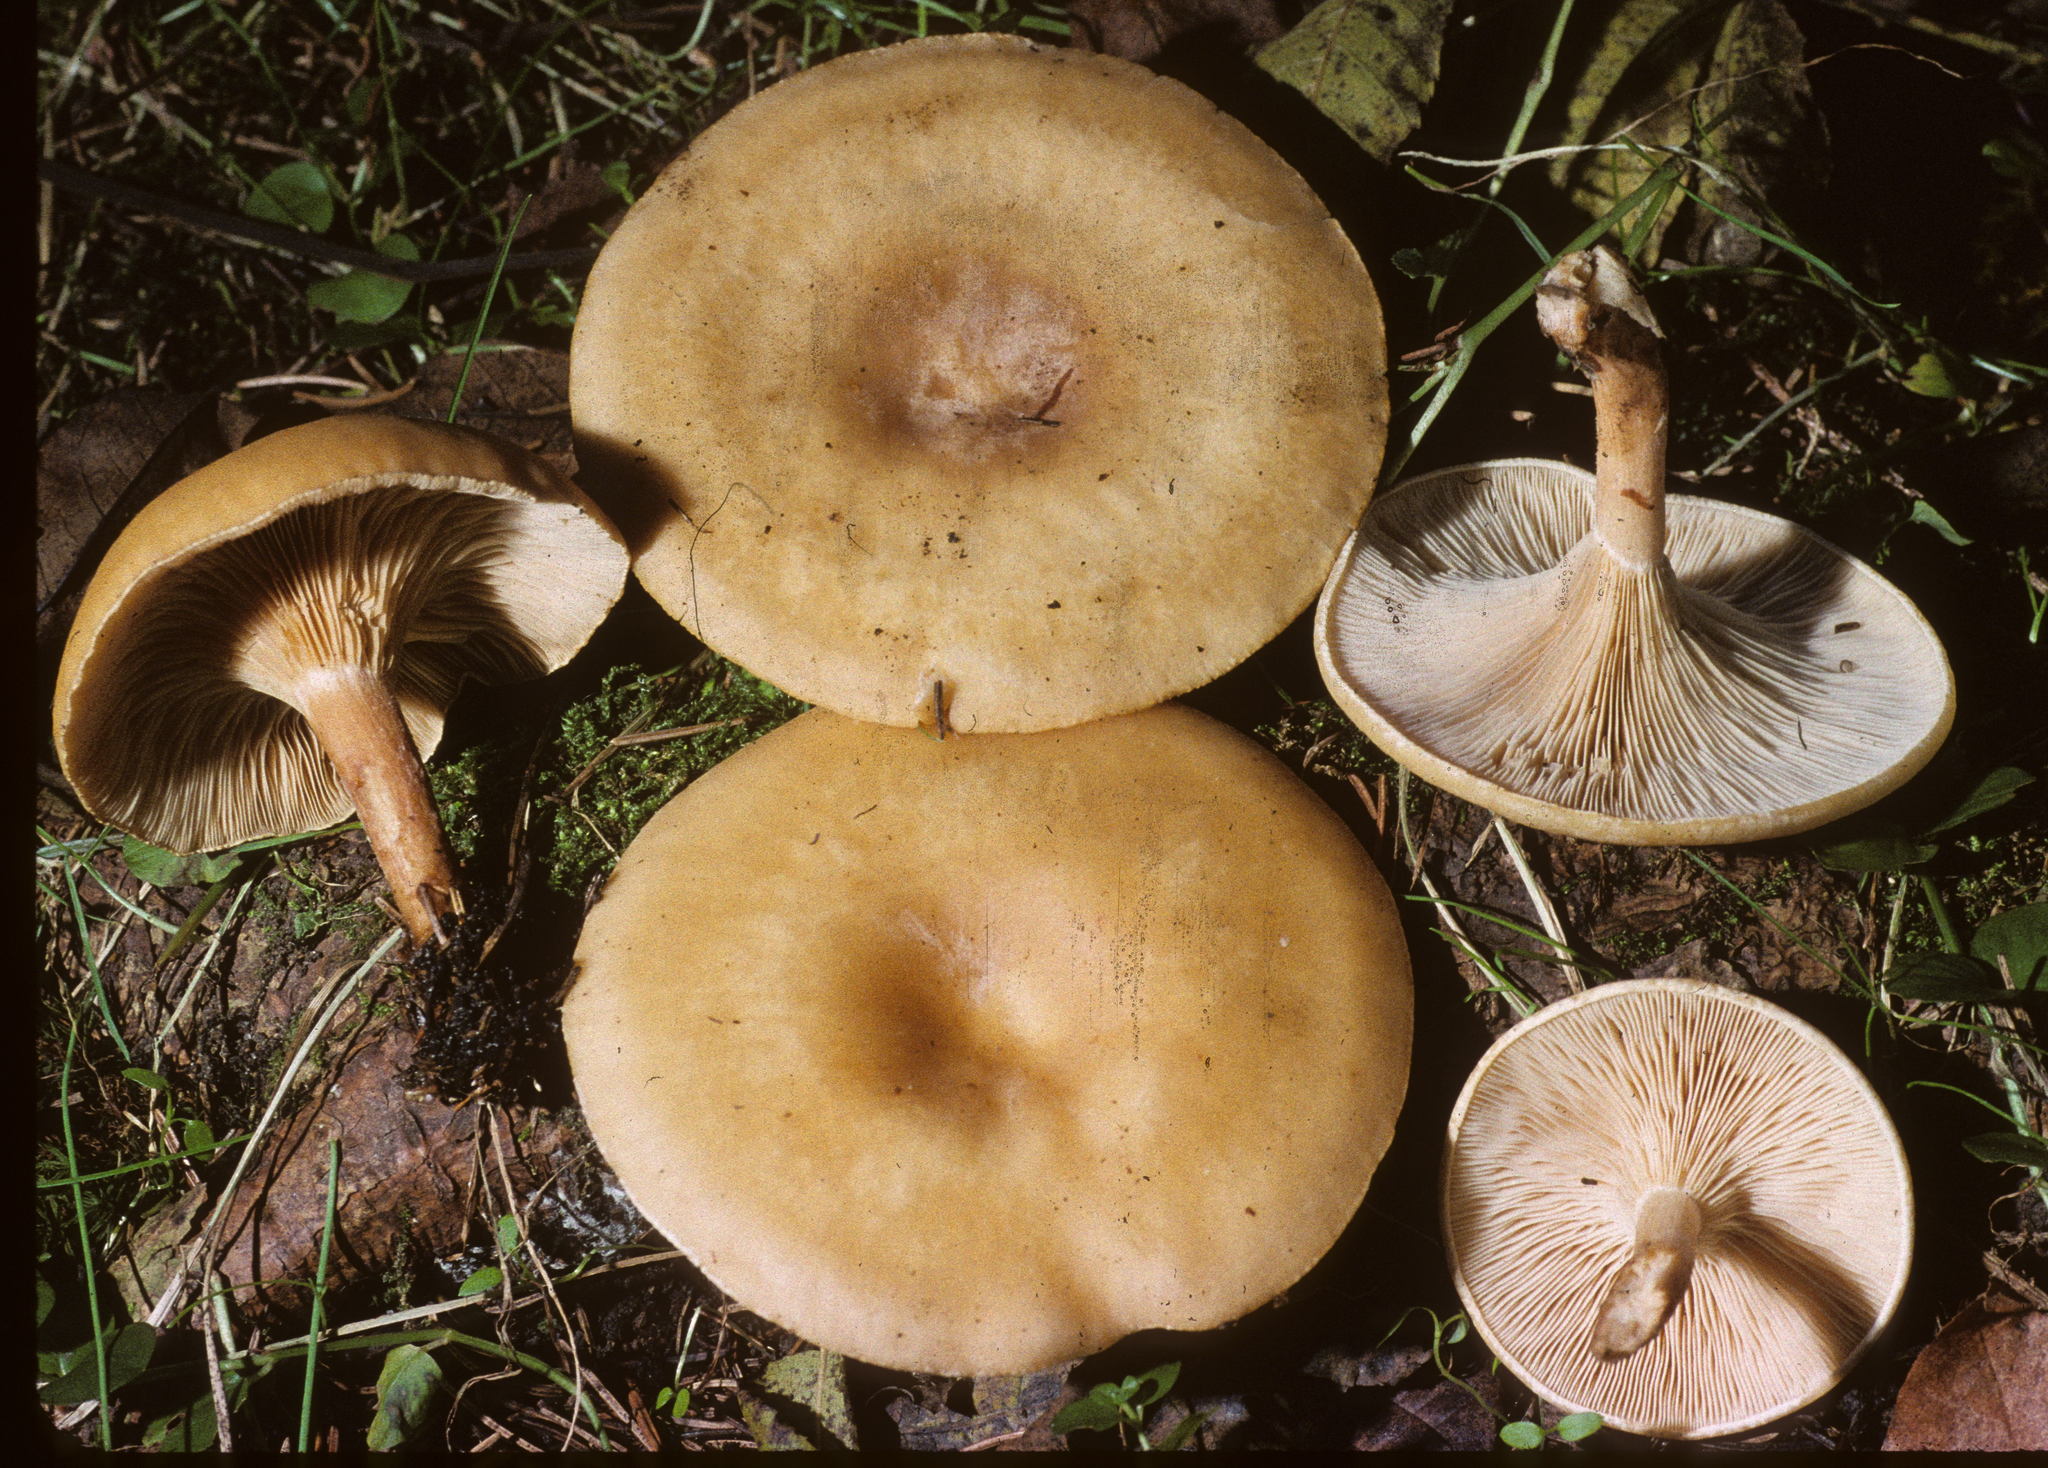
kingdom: Fungi
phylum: Basidiomycota
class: Agaricomycetes
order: Agaricales
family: Tricholomataceae
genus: Infundibulicybe
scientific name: Infundibulicybe squamulosa
